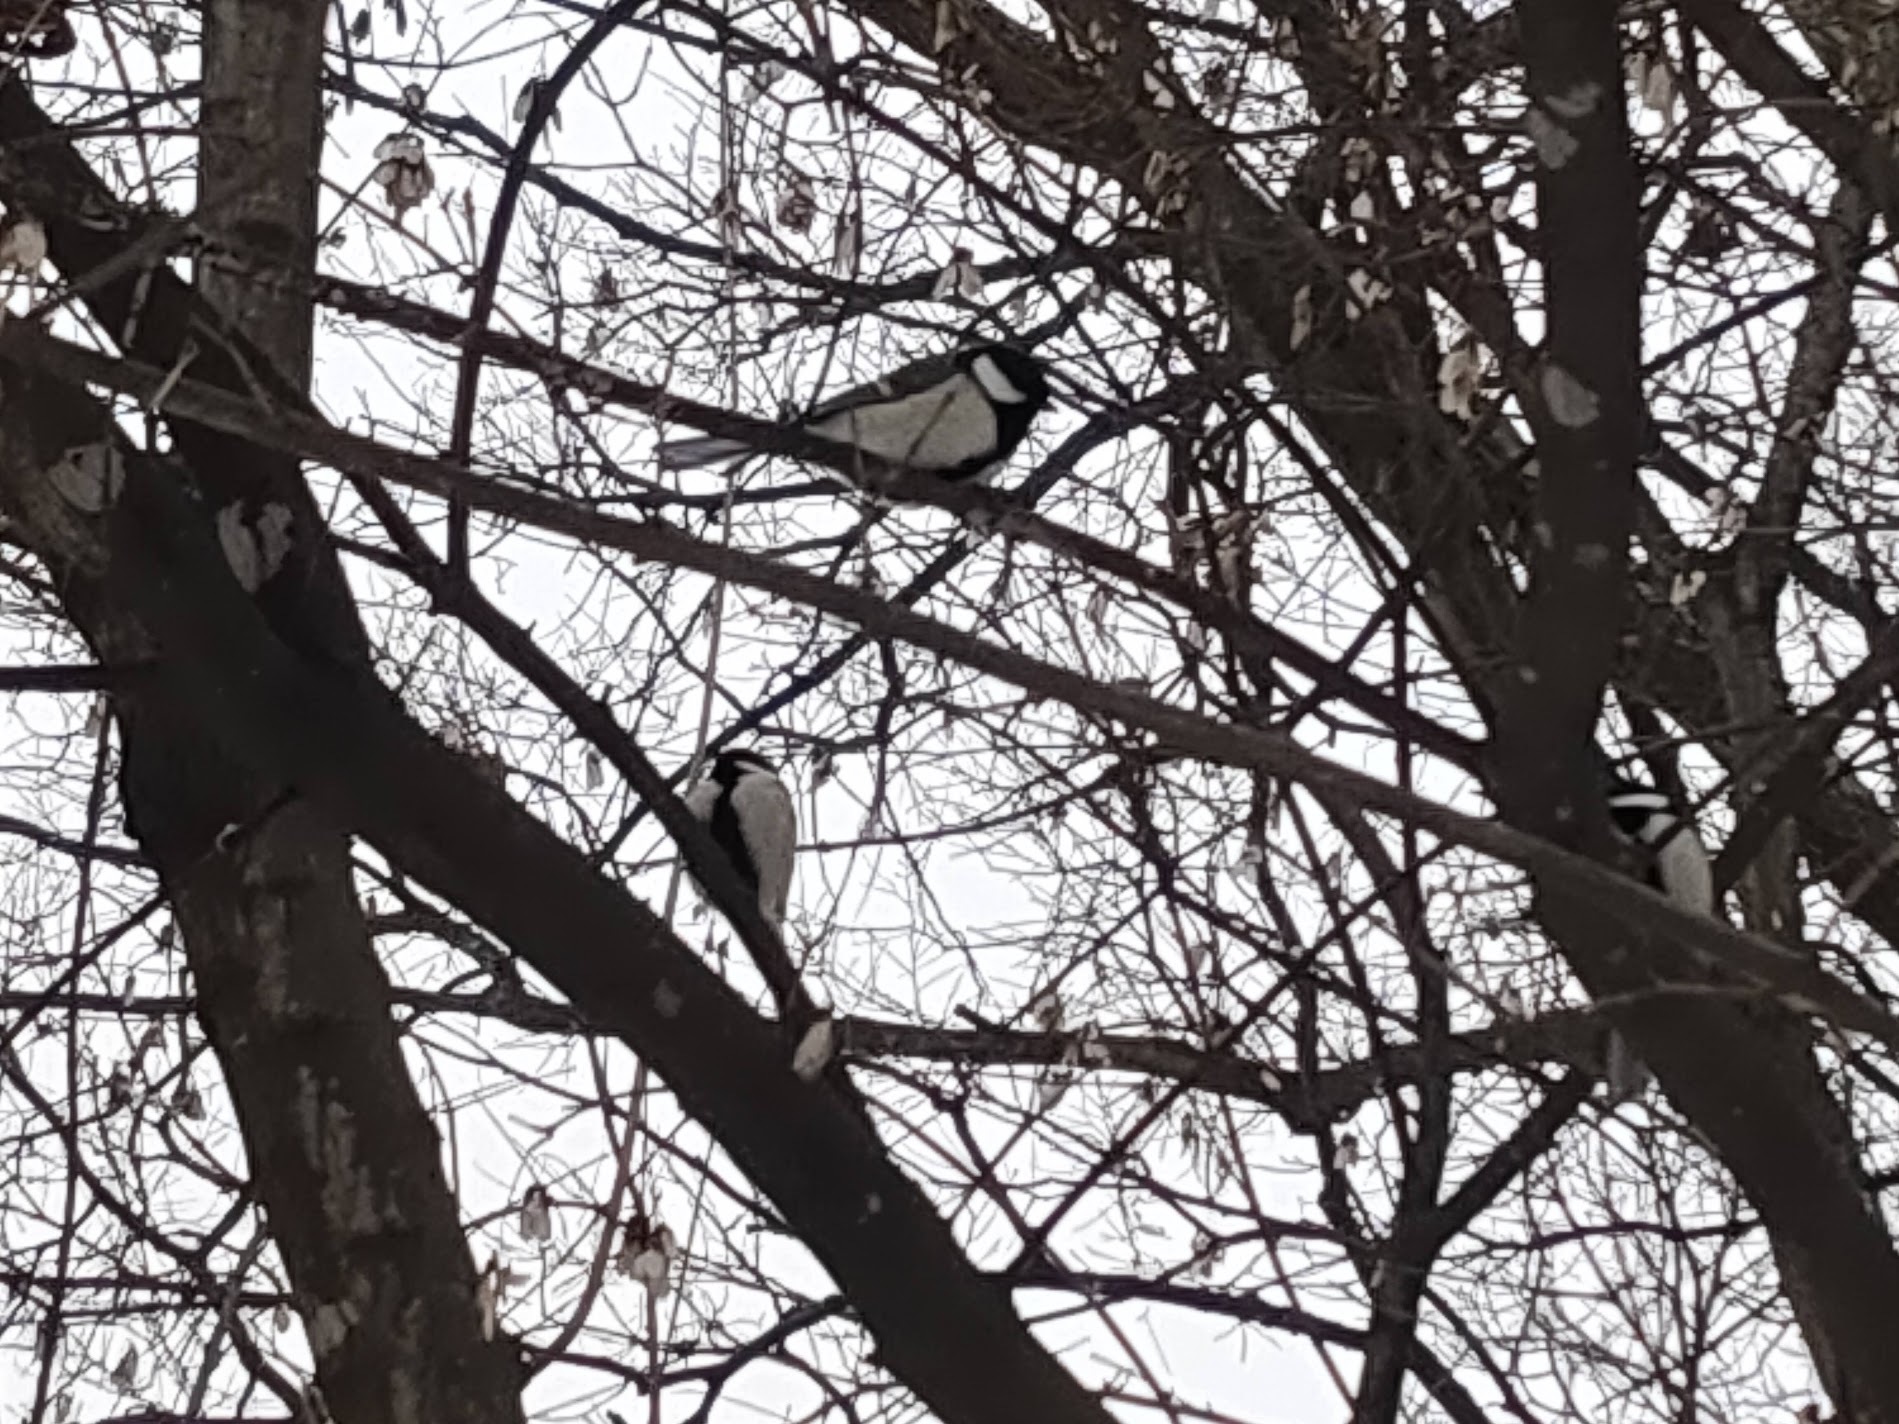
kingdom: Animalia
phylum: Chordata
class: Aves
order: Passeriformes
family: Paridae
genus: Parus
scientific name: Parus minor
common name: Japanese tit
